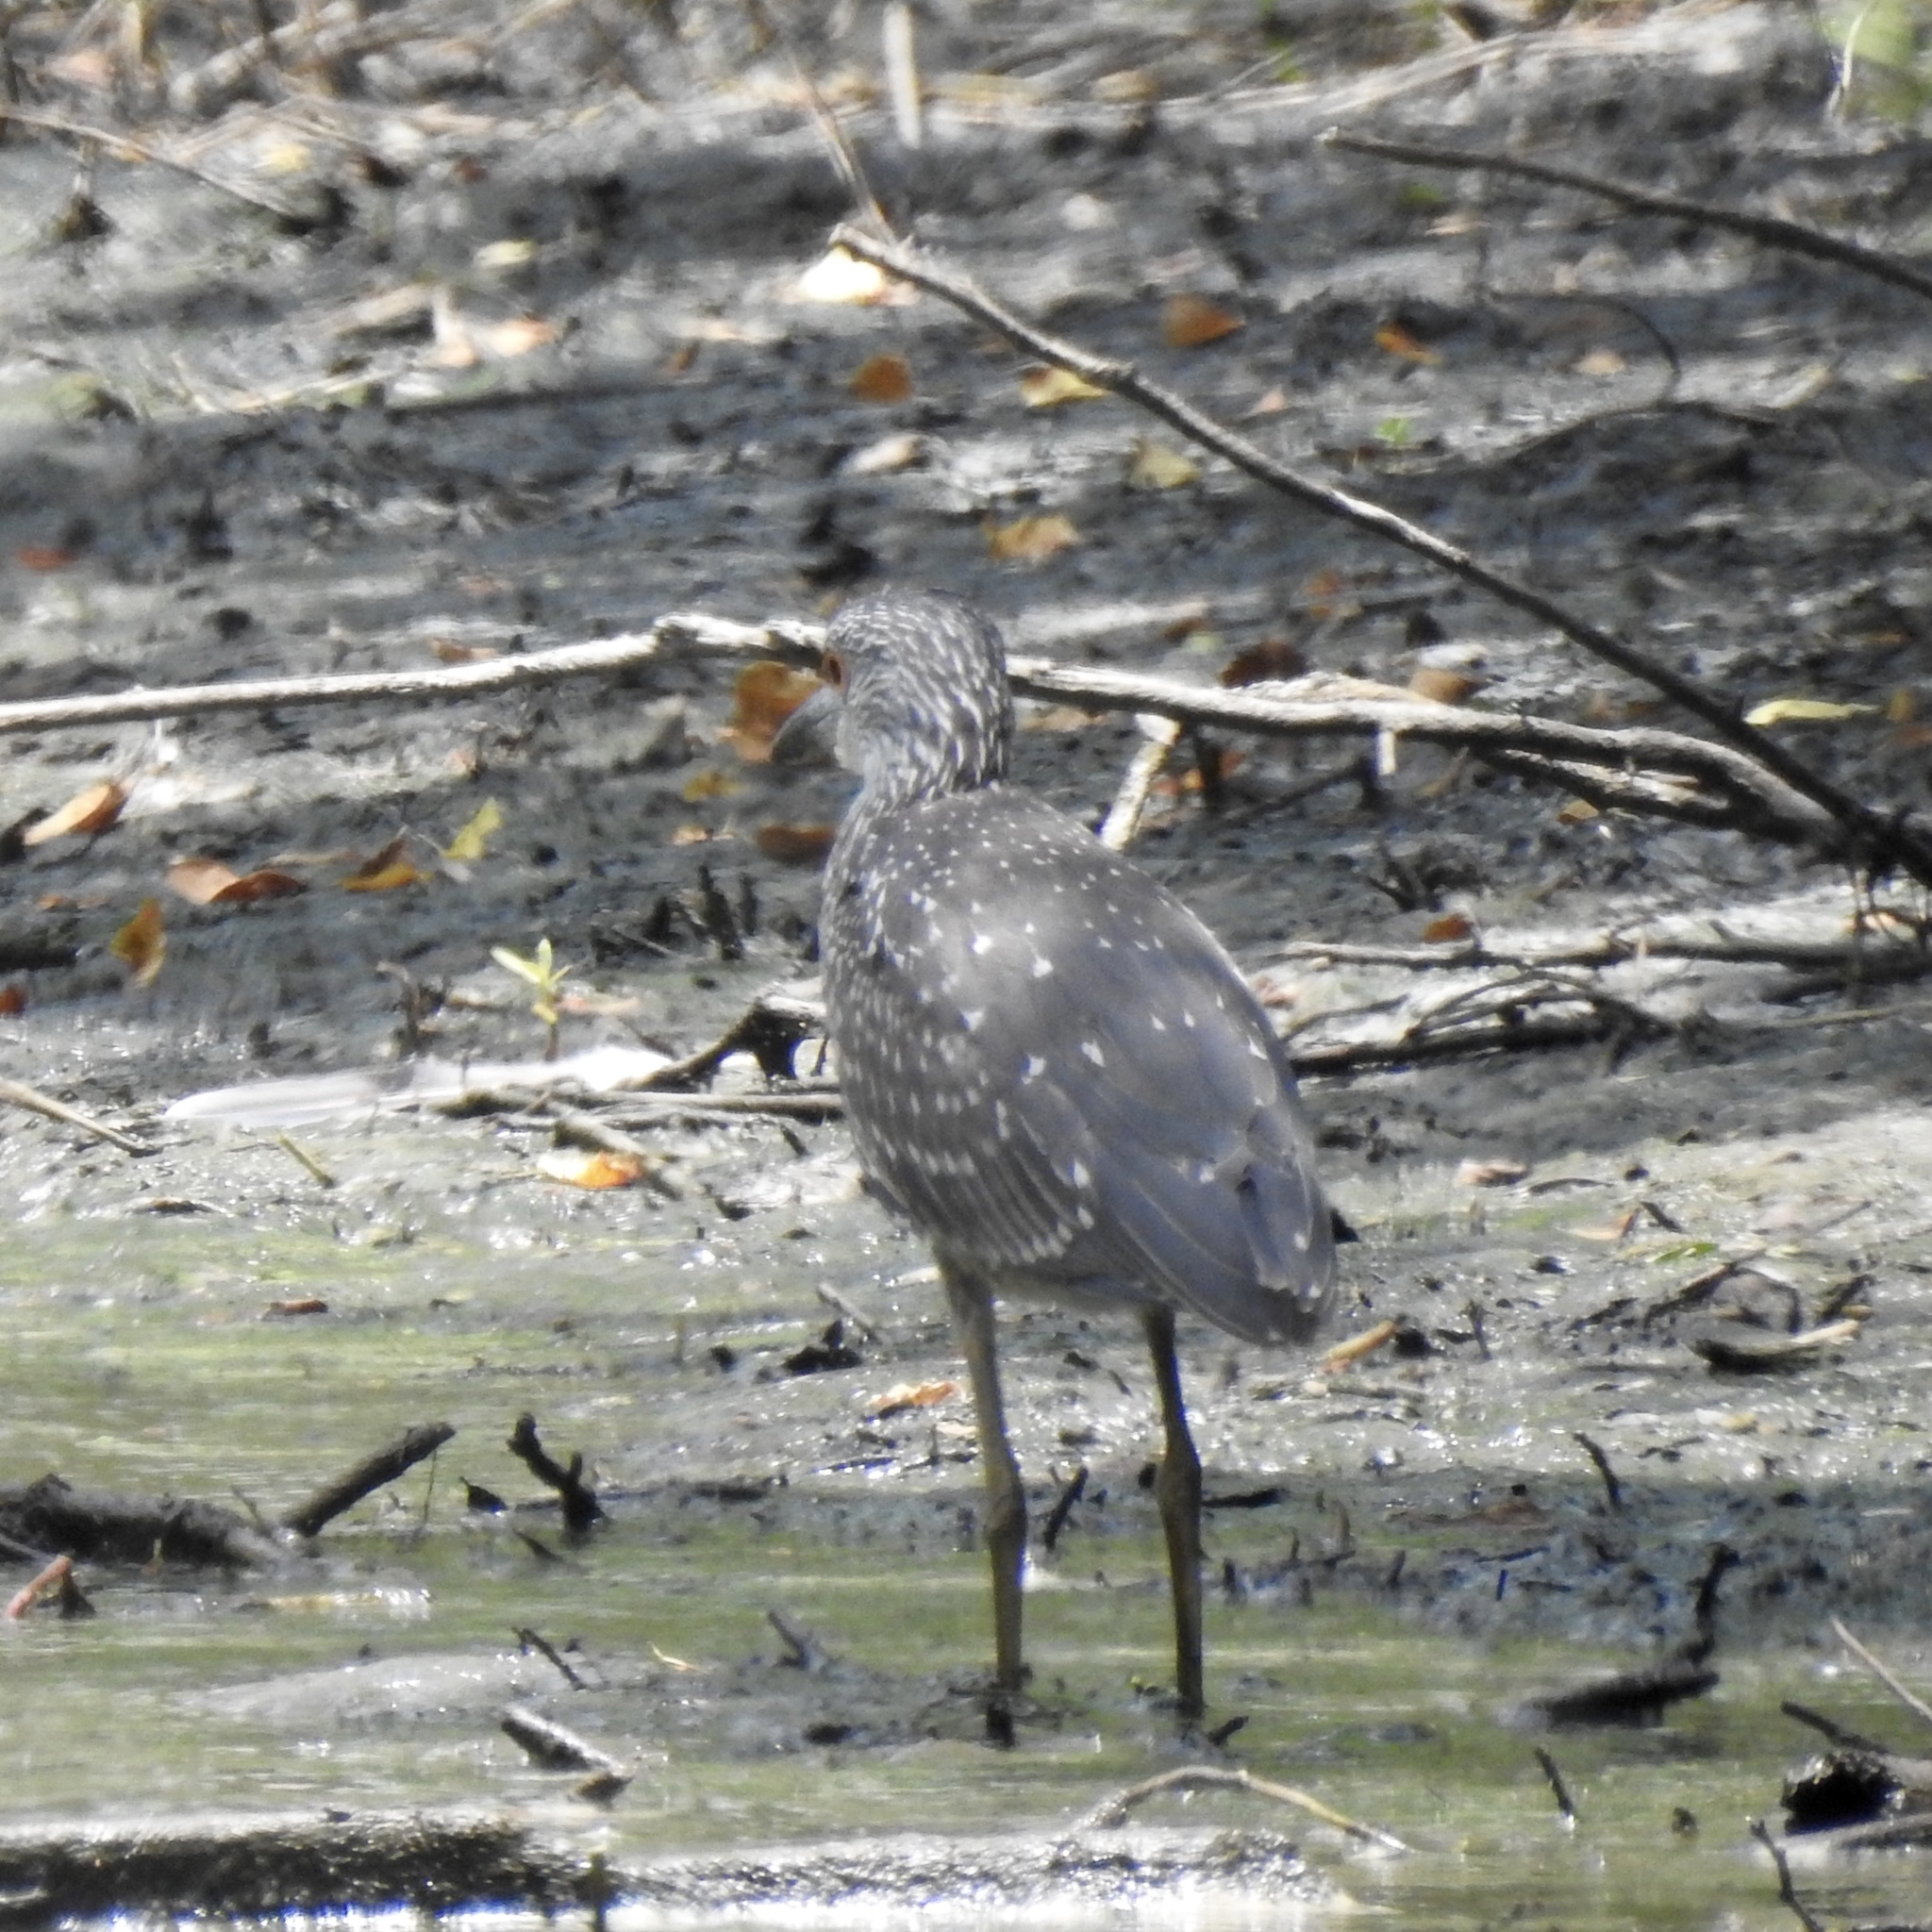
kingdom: Animalia
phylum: Chordata
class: Aves
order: Pelecaniformes
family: Ardeidae
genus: Nyctanassa
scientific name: Nyctanassa violacea
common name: Yellow-crowned night heron
